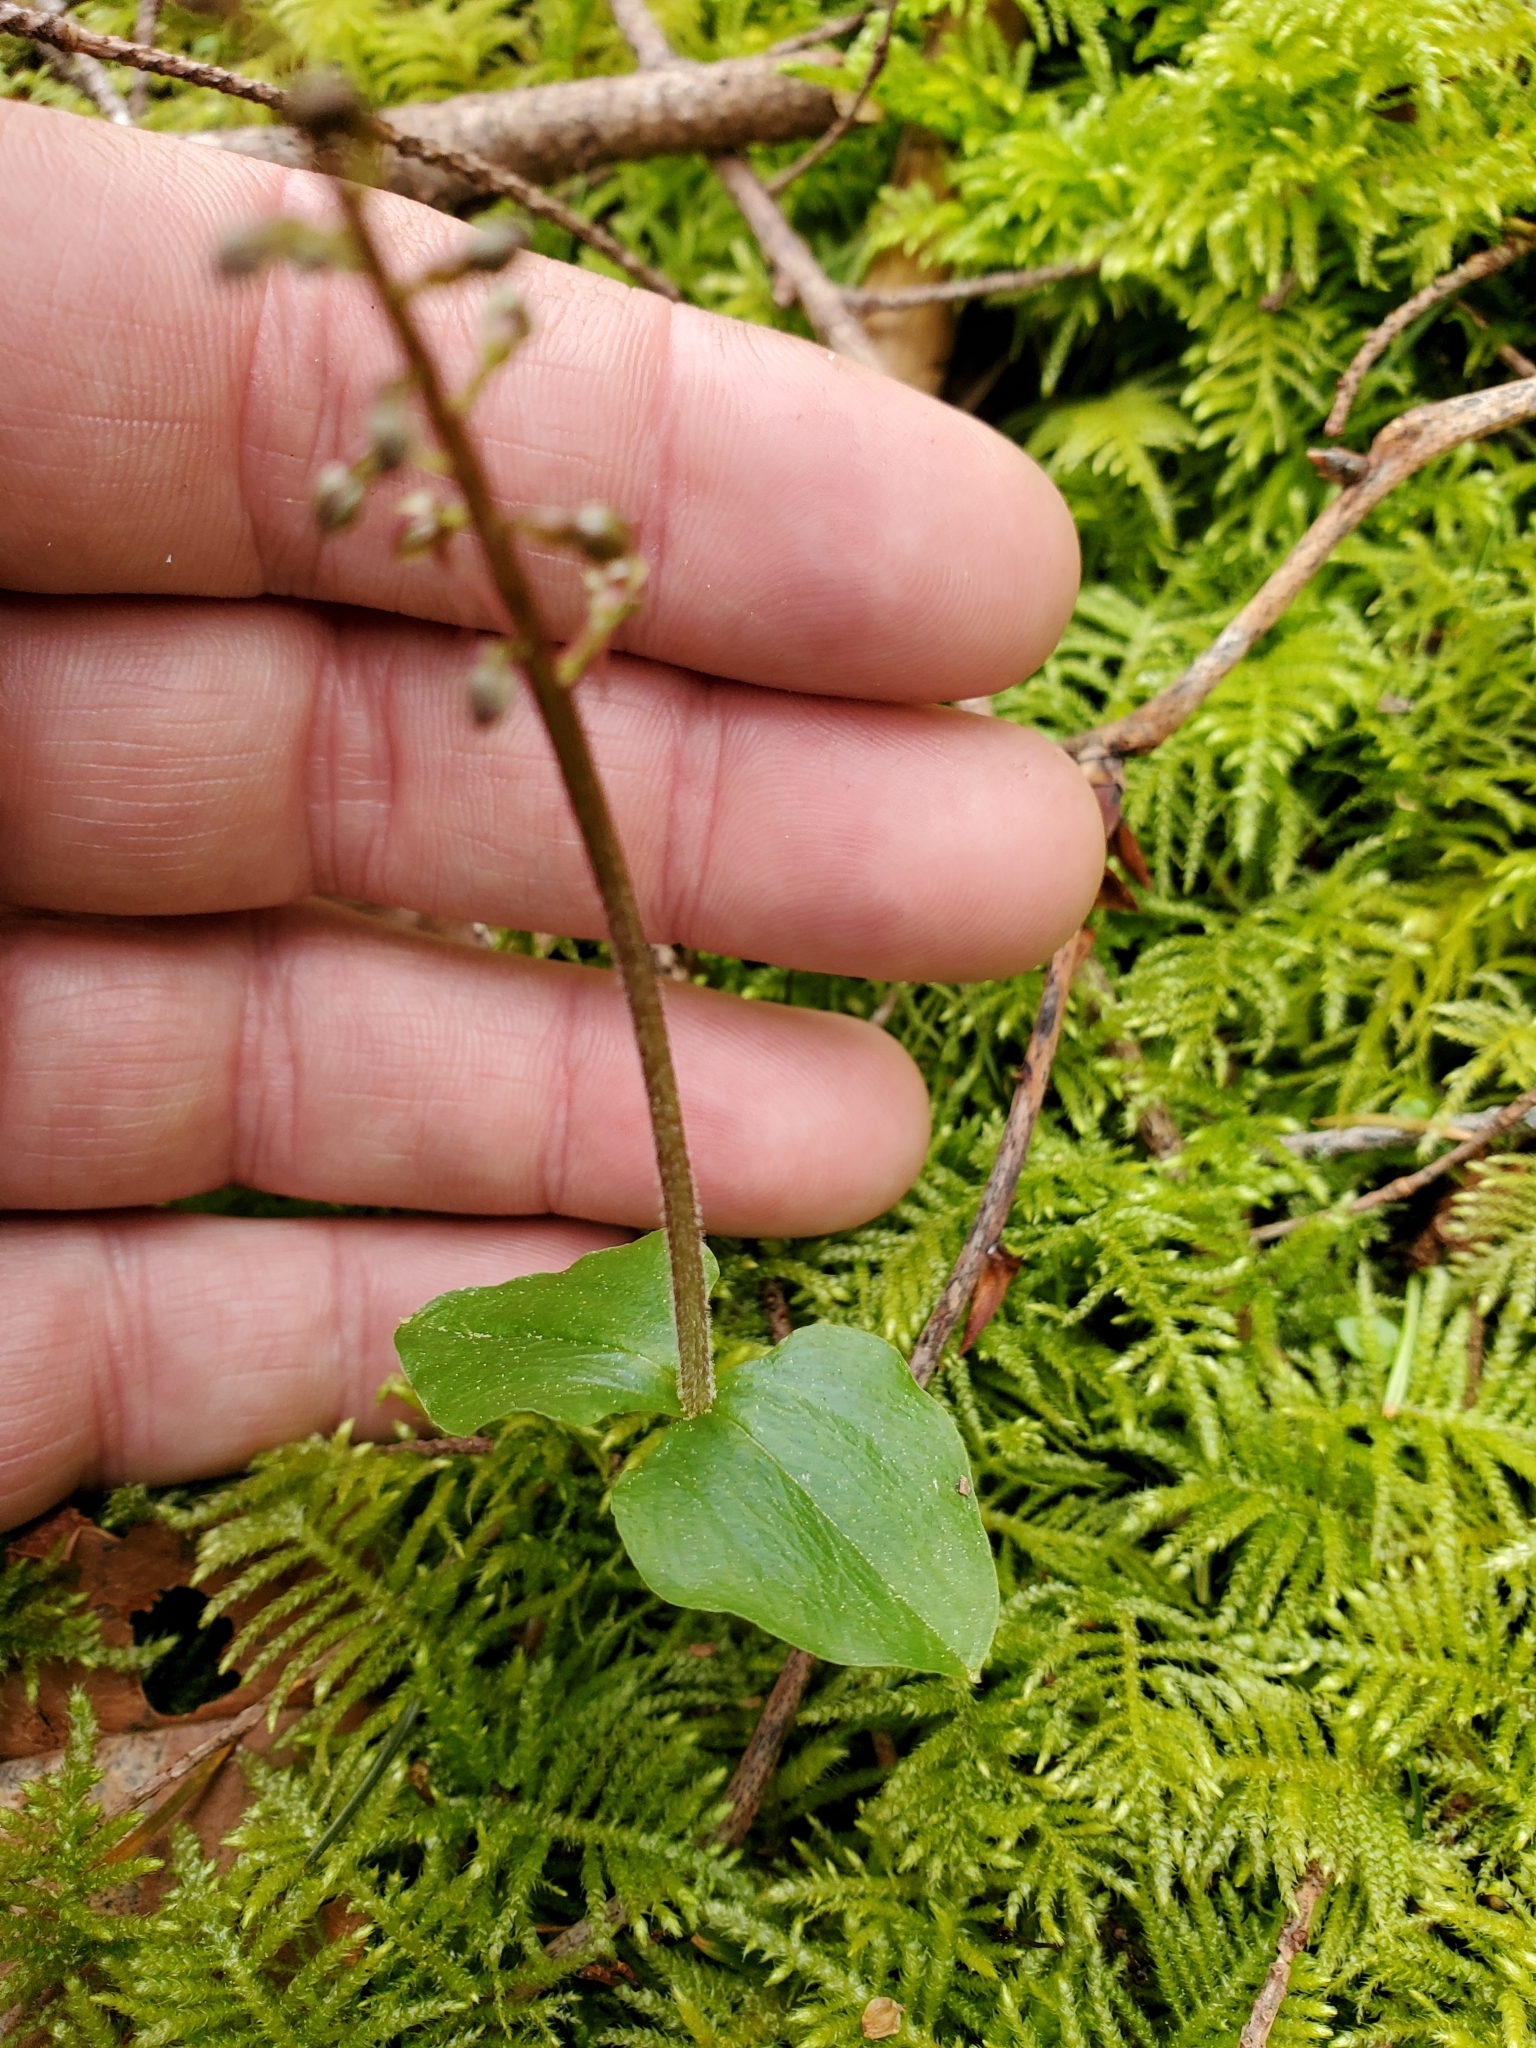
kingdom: Plantae
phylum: Tracheophyta
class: Liliopsida
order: Asparagales
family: Orchidaceae
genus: Neottia
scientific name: Neottia cordata
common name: Lesser twayblade
